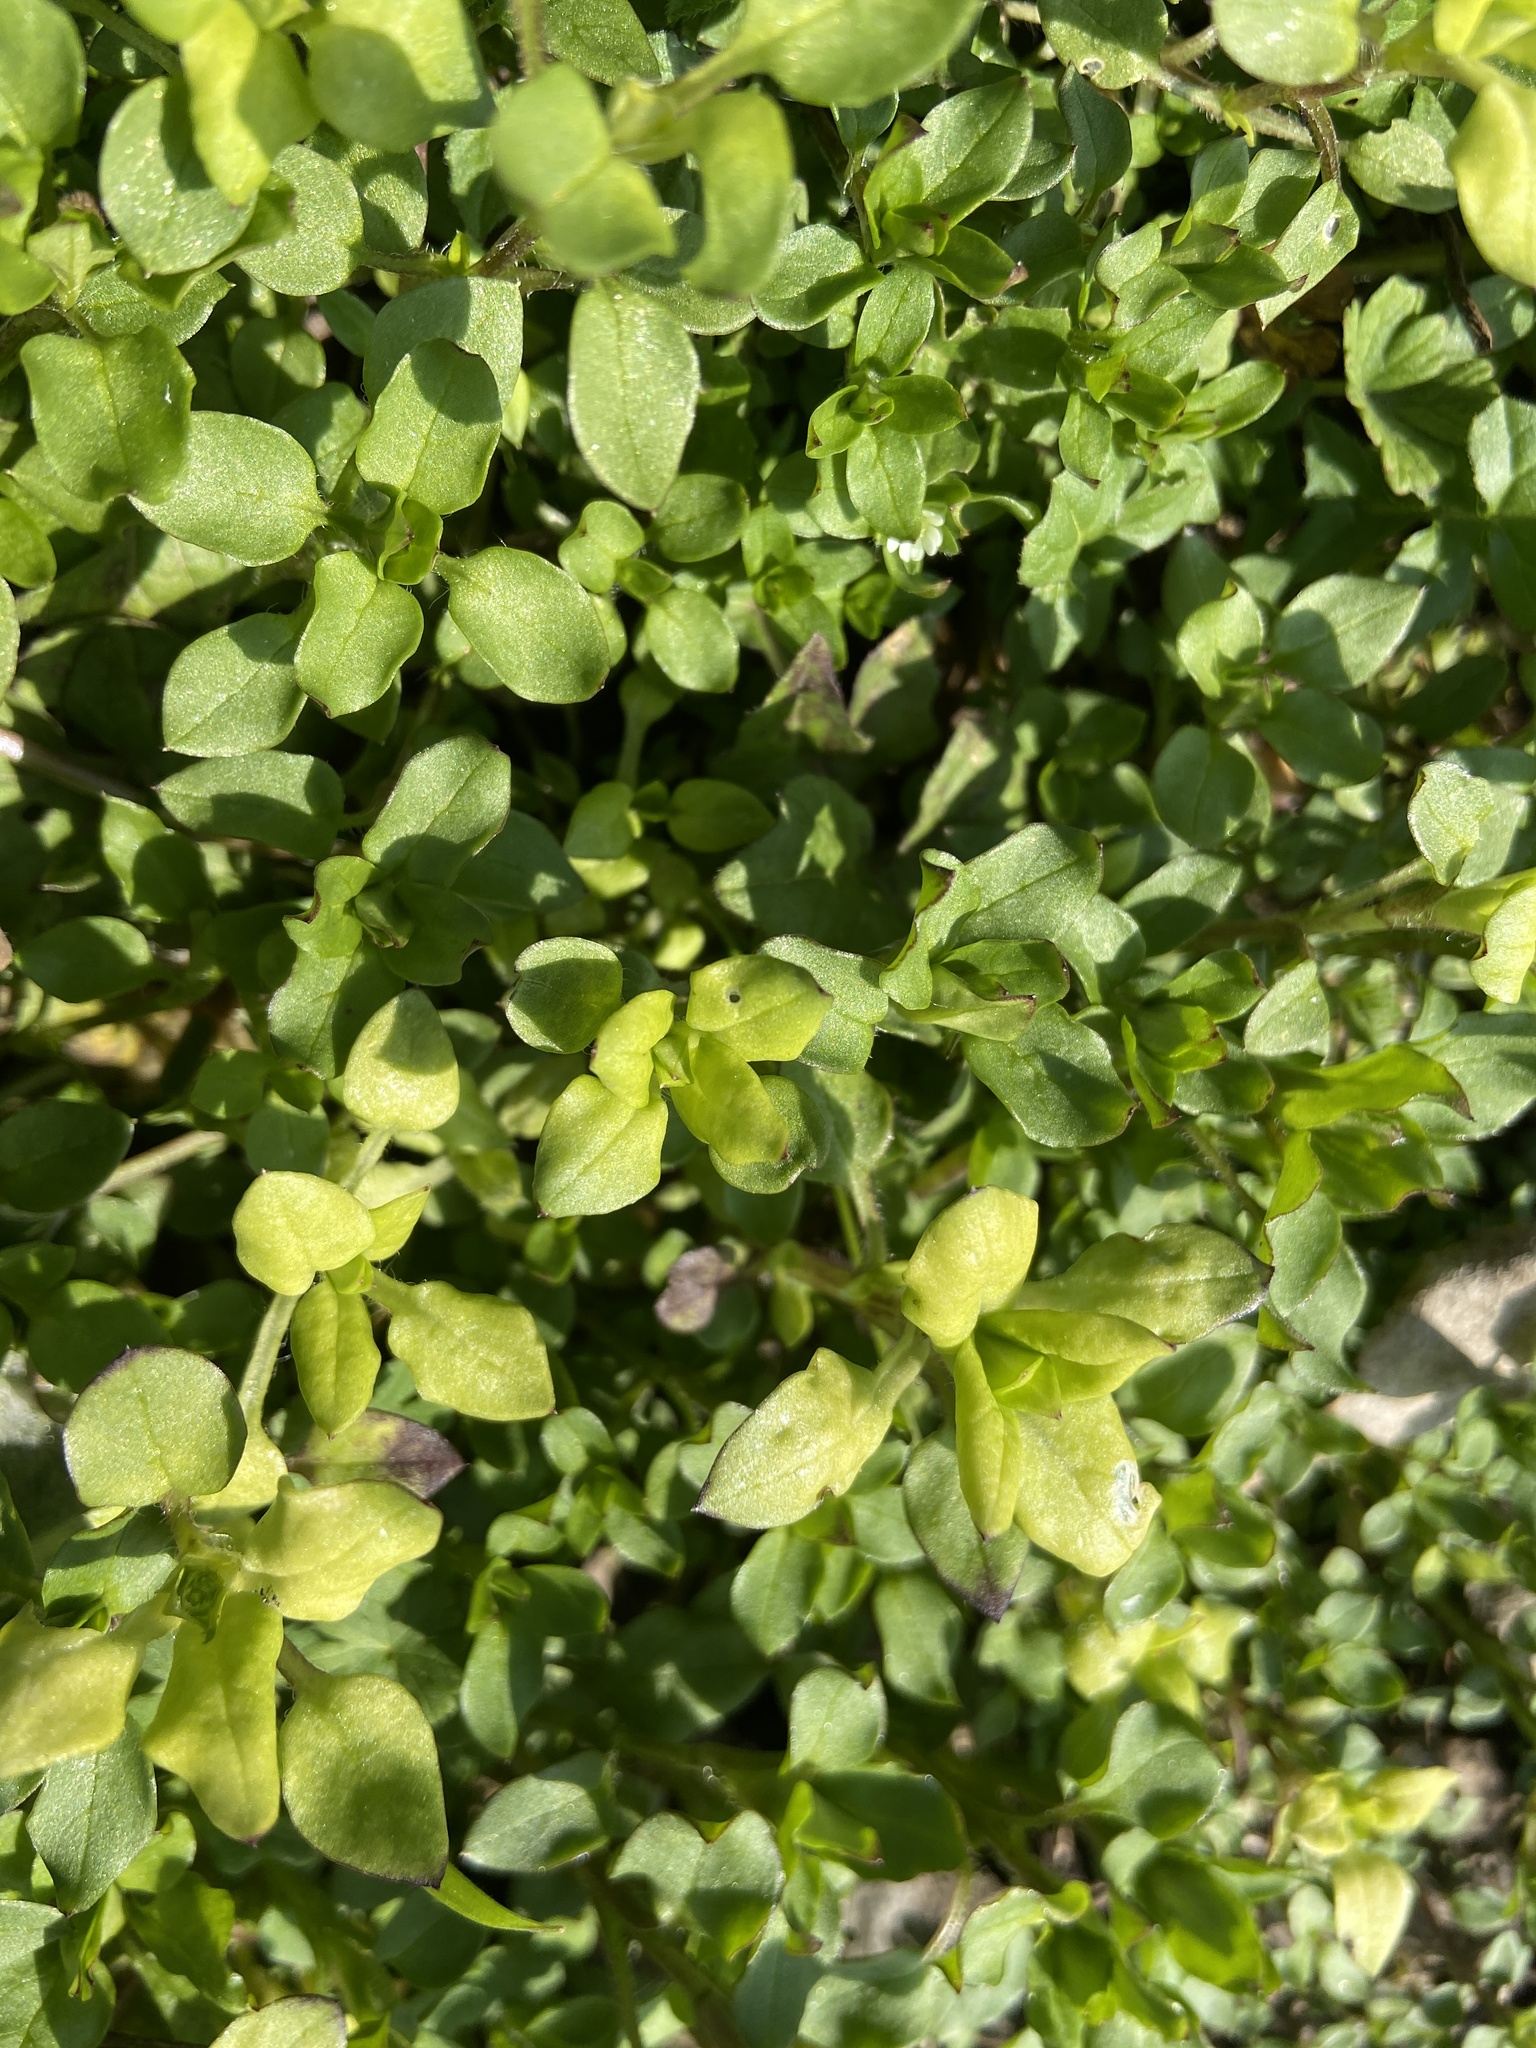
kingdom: Plantae
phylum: Tracheophyta
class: Magnoliopsida
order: Caryophyllales
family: Caryophyllaceae
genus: Stellaria
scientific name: Stellaria media
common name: Common chickweed
